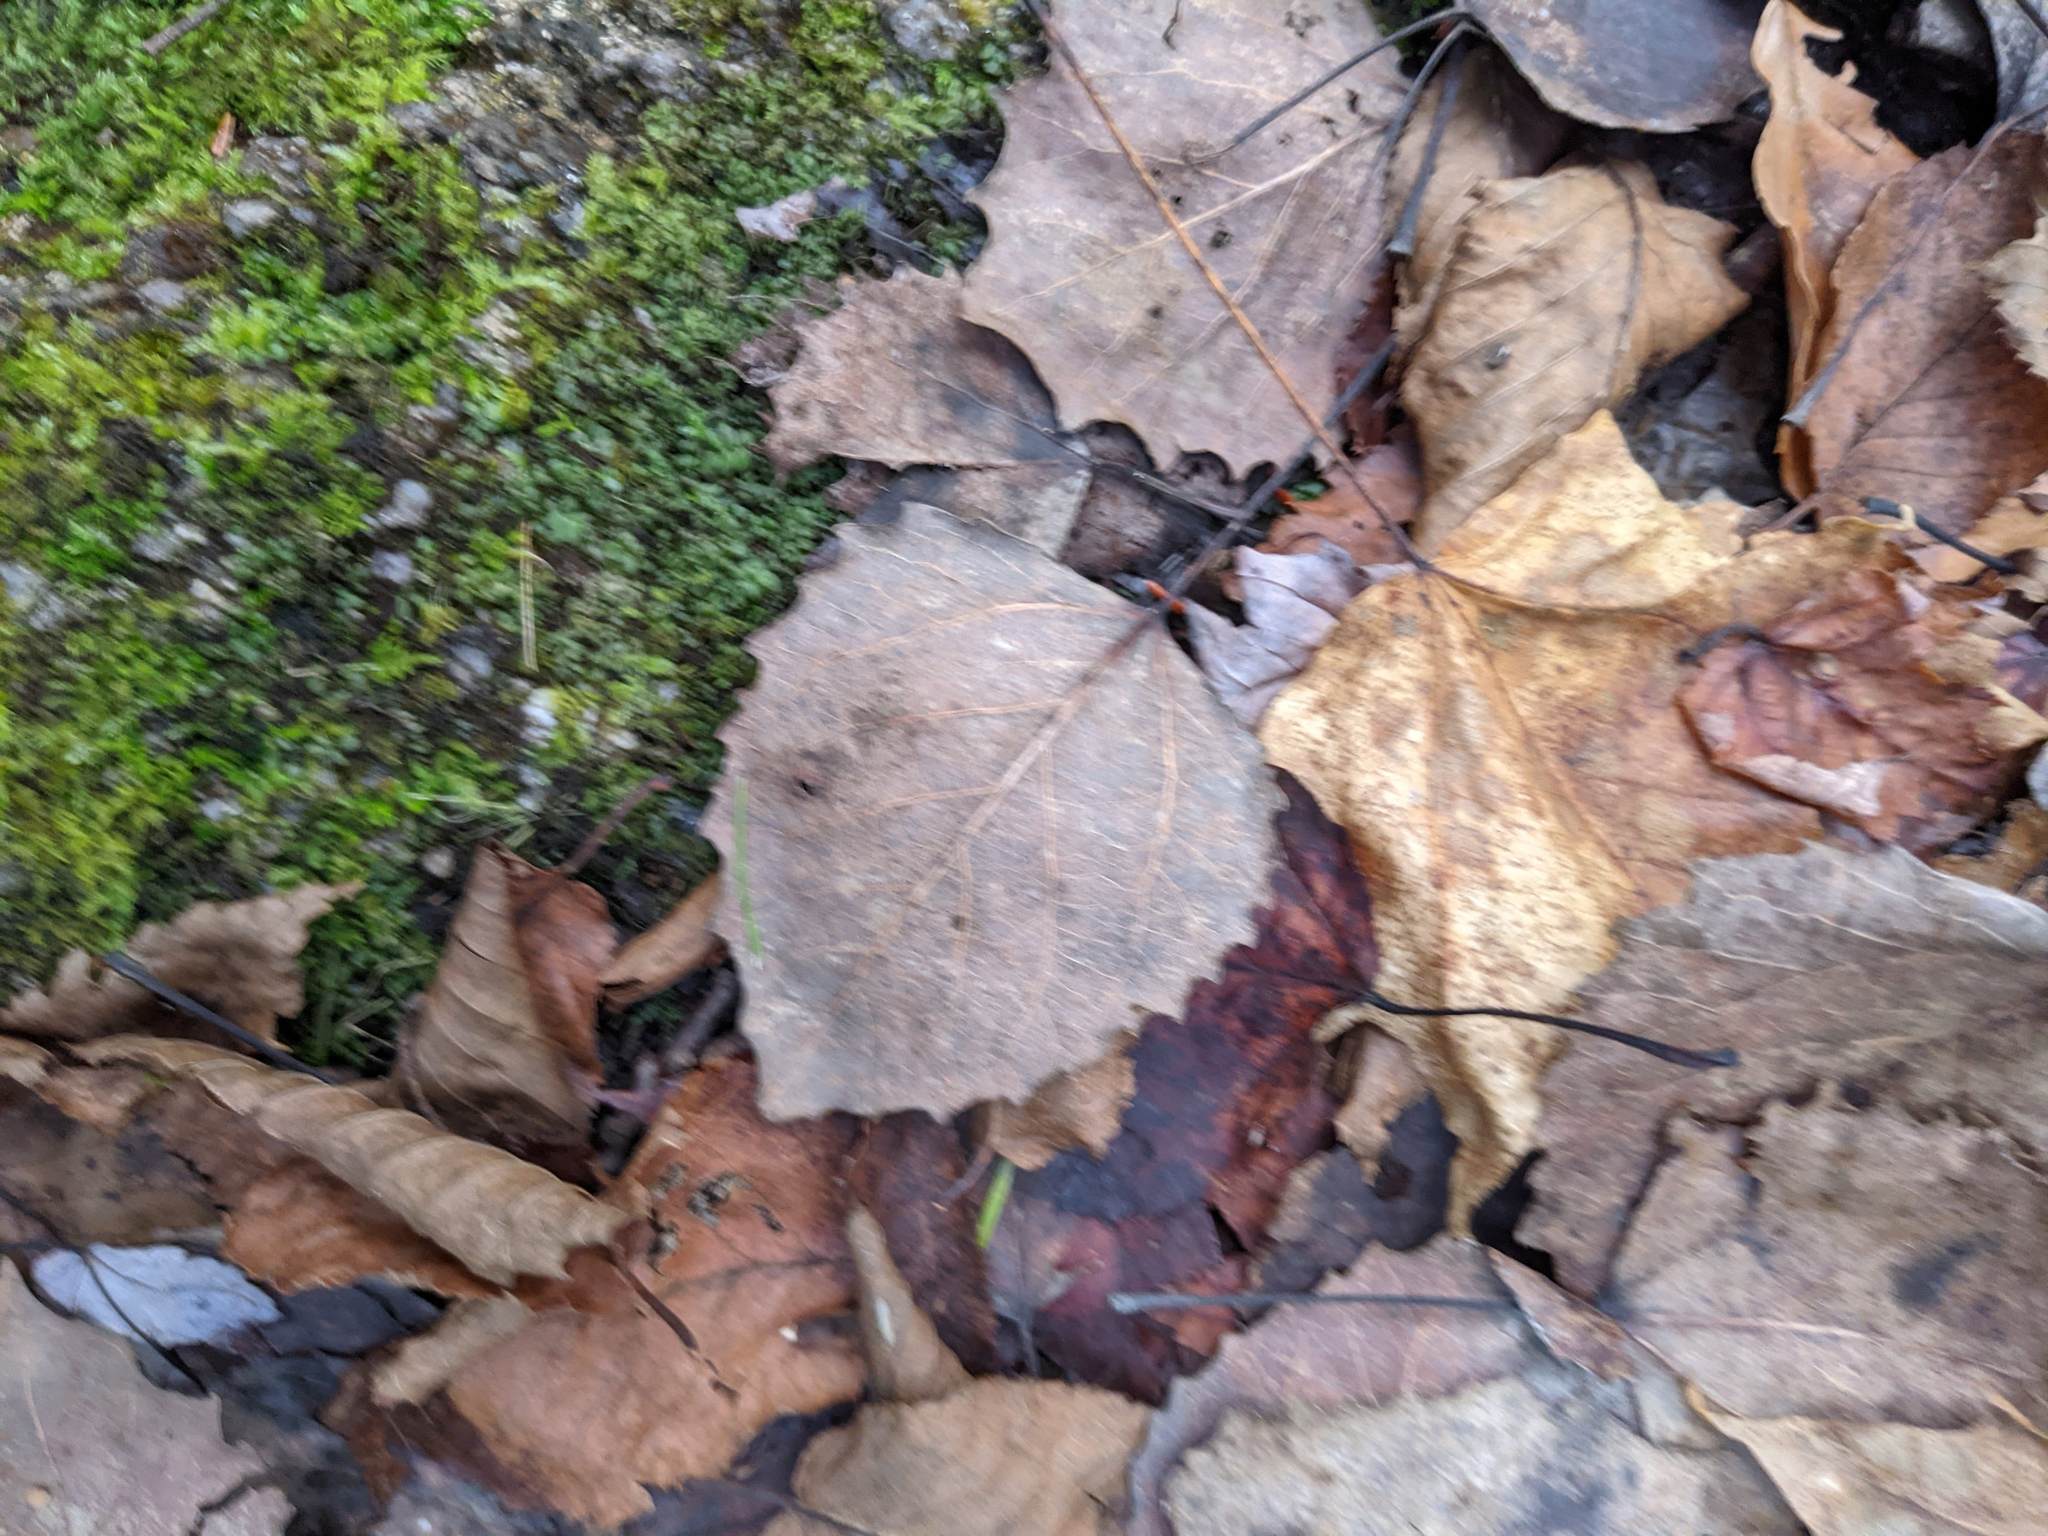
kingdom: Plantae
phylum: Tracheophyta
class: Magnoliopsida
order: Malpighiales
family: Salicaceae
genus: Populus
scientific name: Populus grandidentata
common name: Bigtooth aspen
